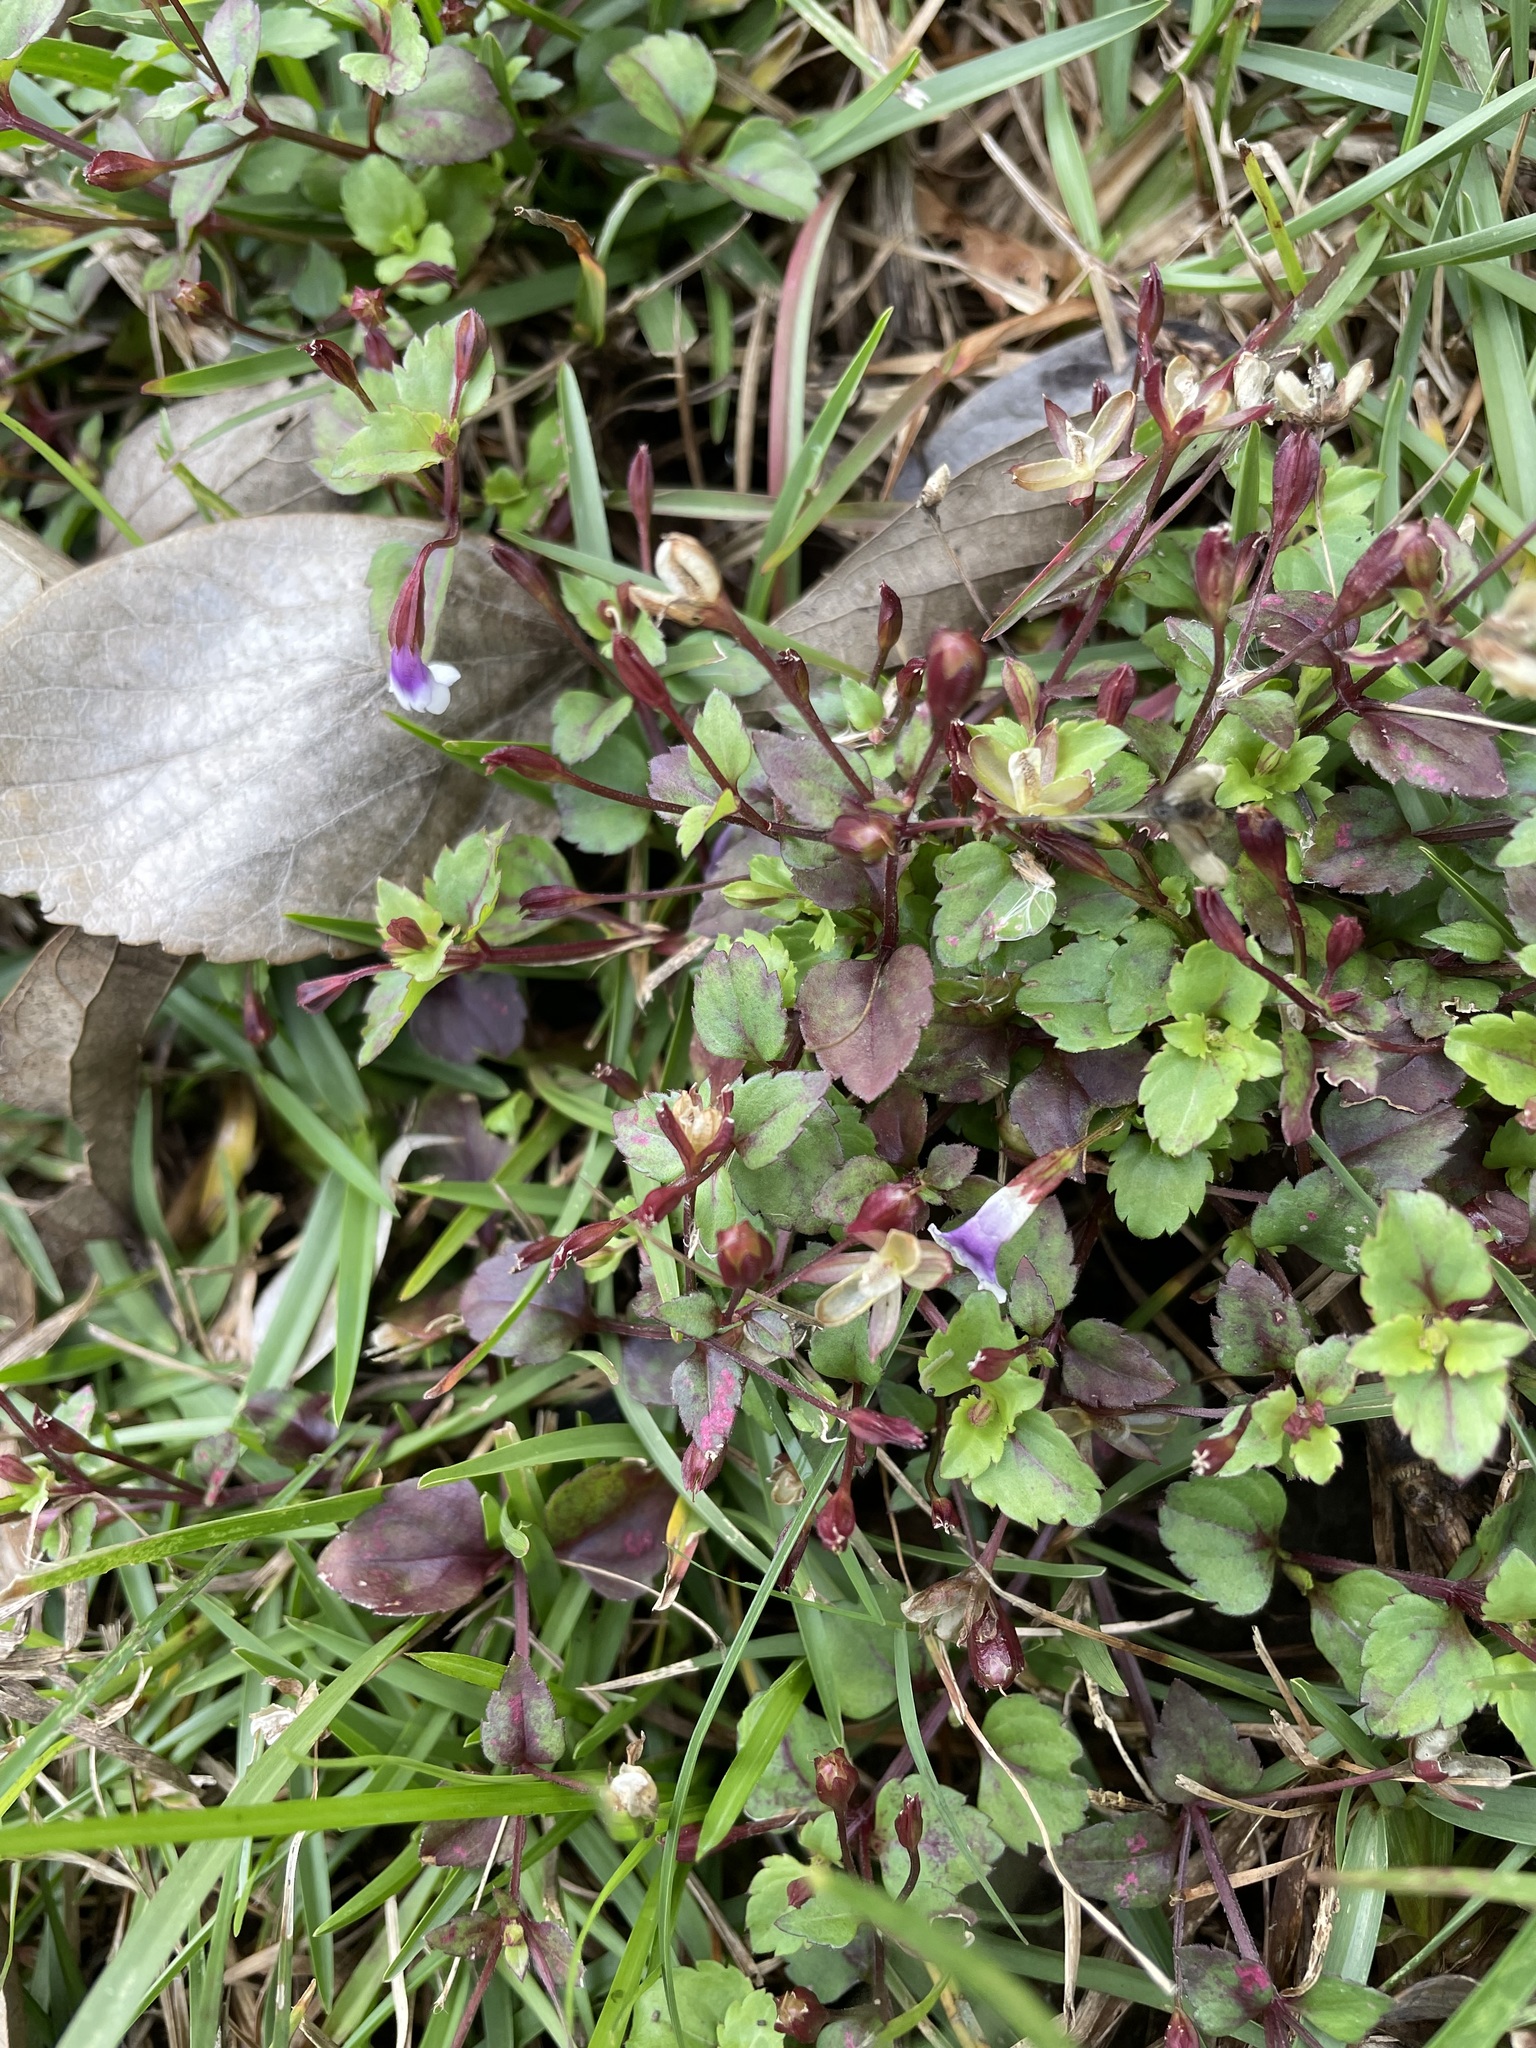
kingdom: Plantae
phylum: Tracheophyta
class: Magnoliopsida
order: Lamiales
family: Linderniaceae
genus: Torenia
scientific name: Torenia crustacea
